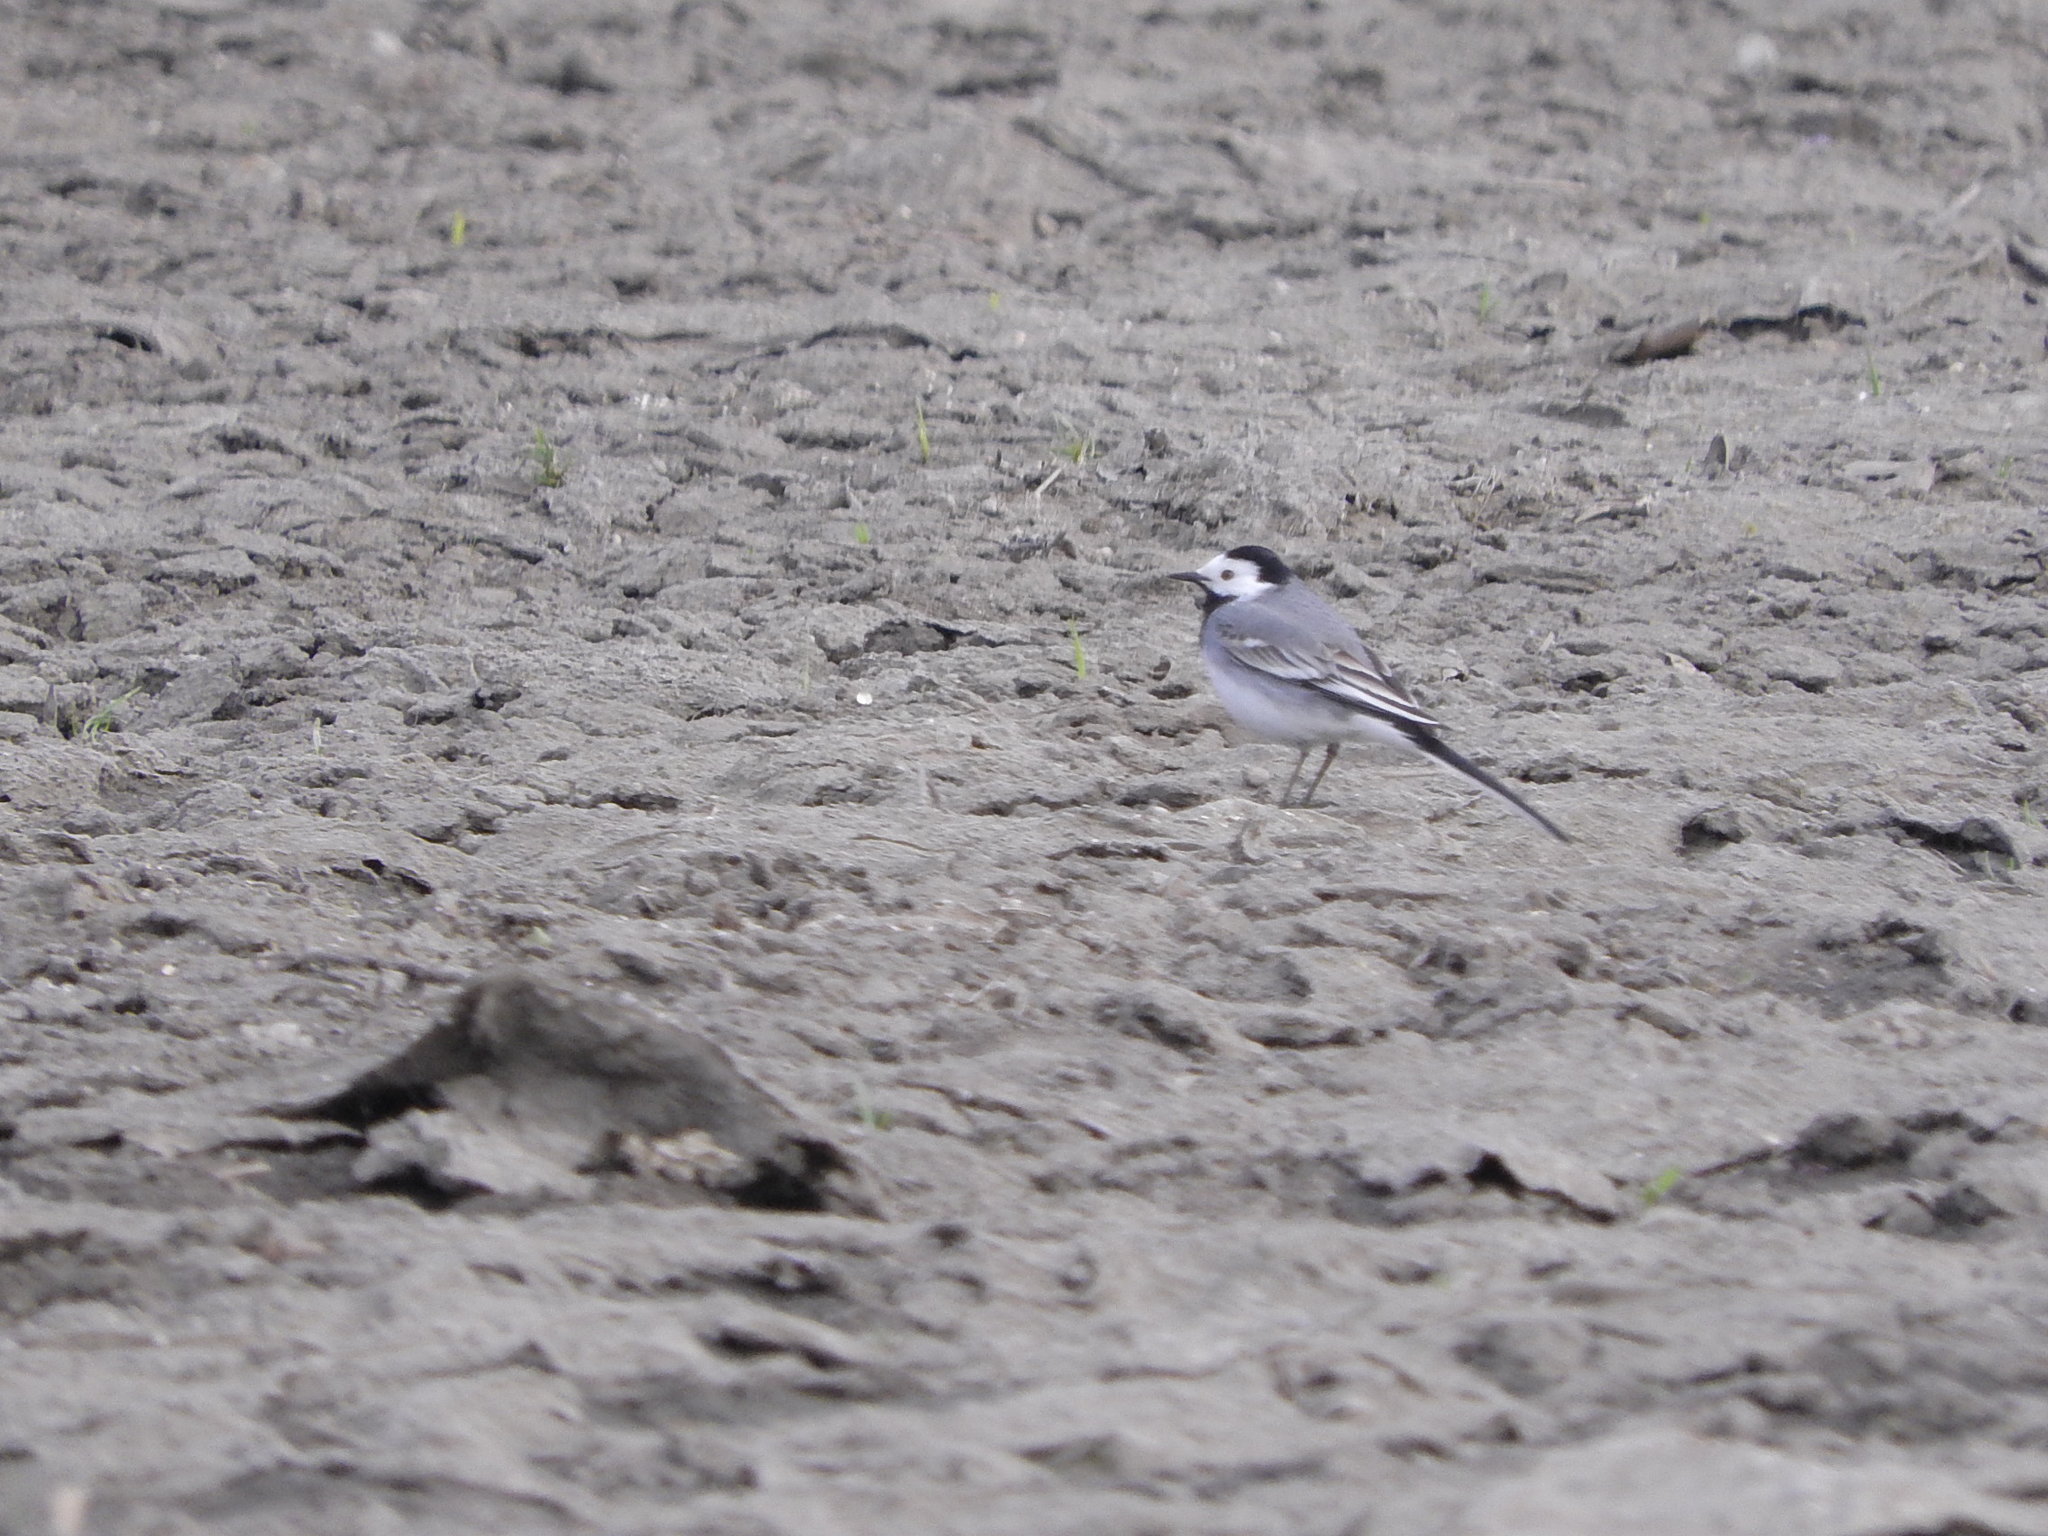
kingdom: Animalia
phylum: Chordata
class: Aves
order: Passeriformes
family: Motacillidae
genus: Motacilla
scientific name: Motacilla alba
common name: White wagtail
